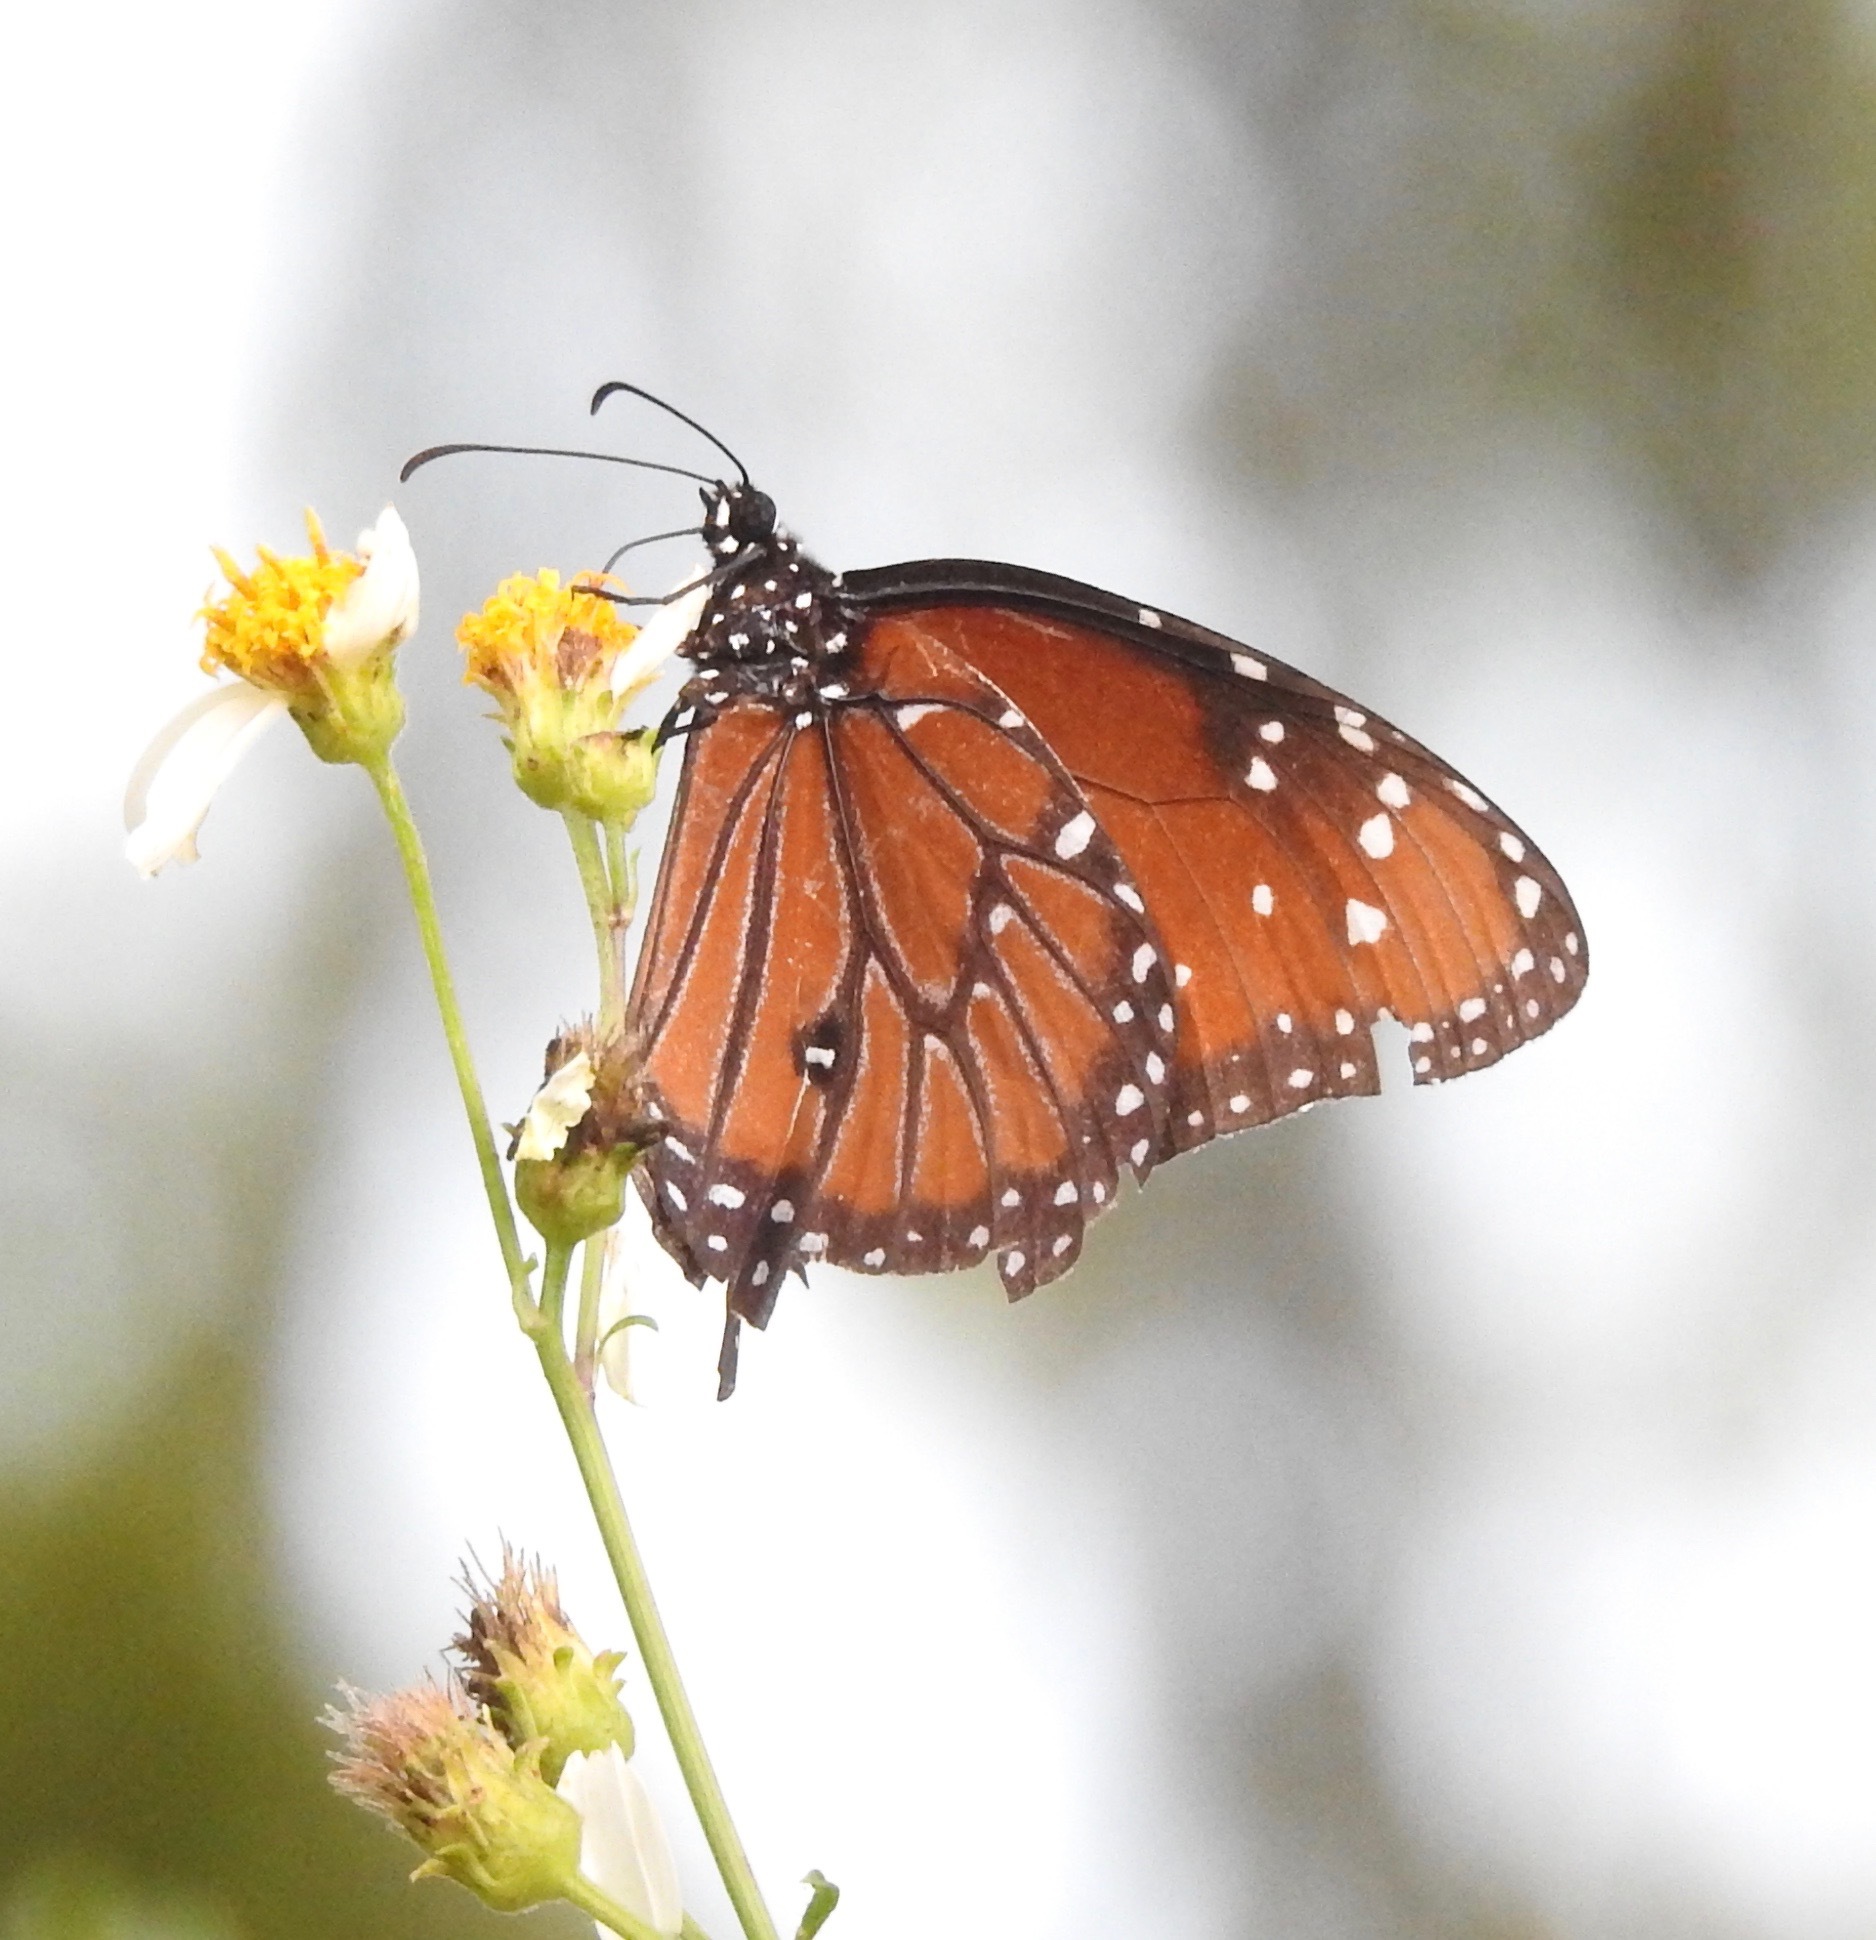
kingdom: Animalia
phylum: Arthropoda
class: Insecta
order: Lepidoptera
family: Nymphalidae
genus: Danaus
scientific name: Danaus gilippus
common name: Queen
